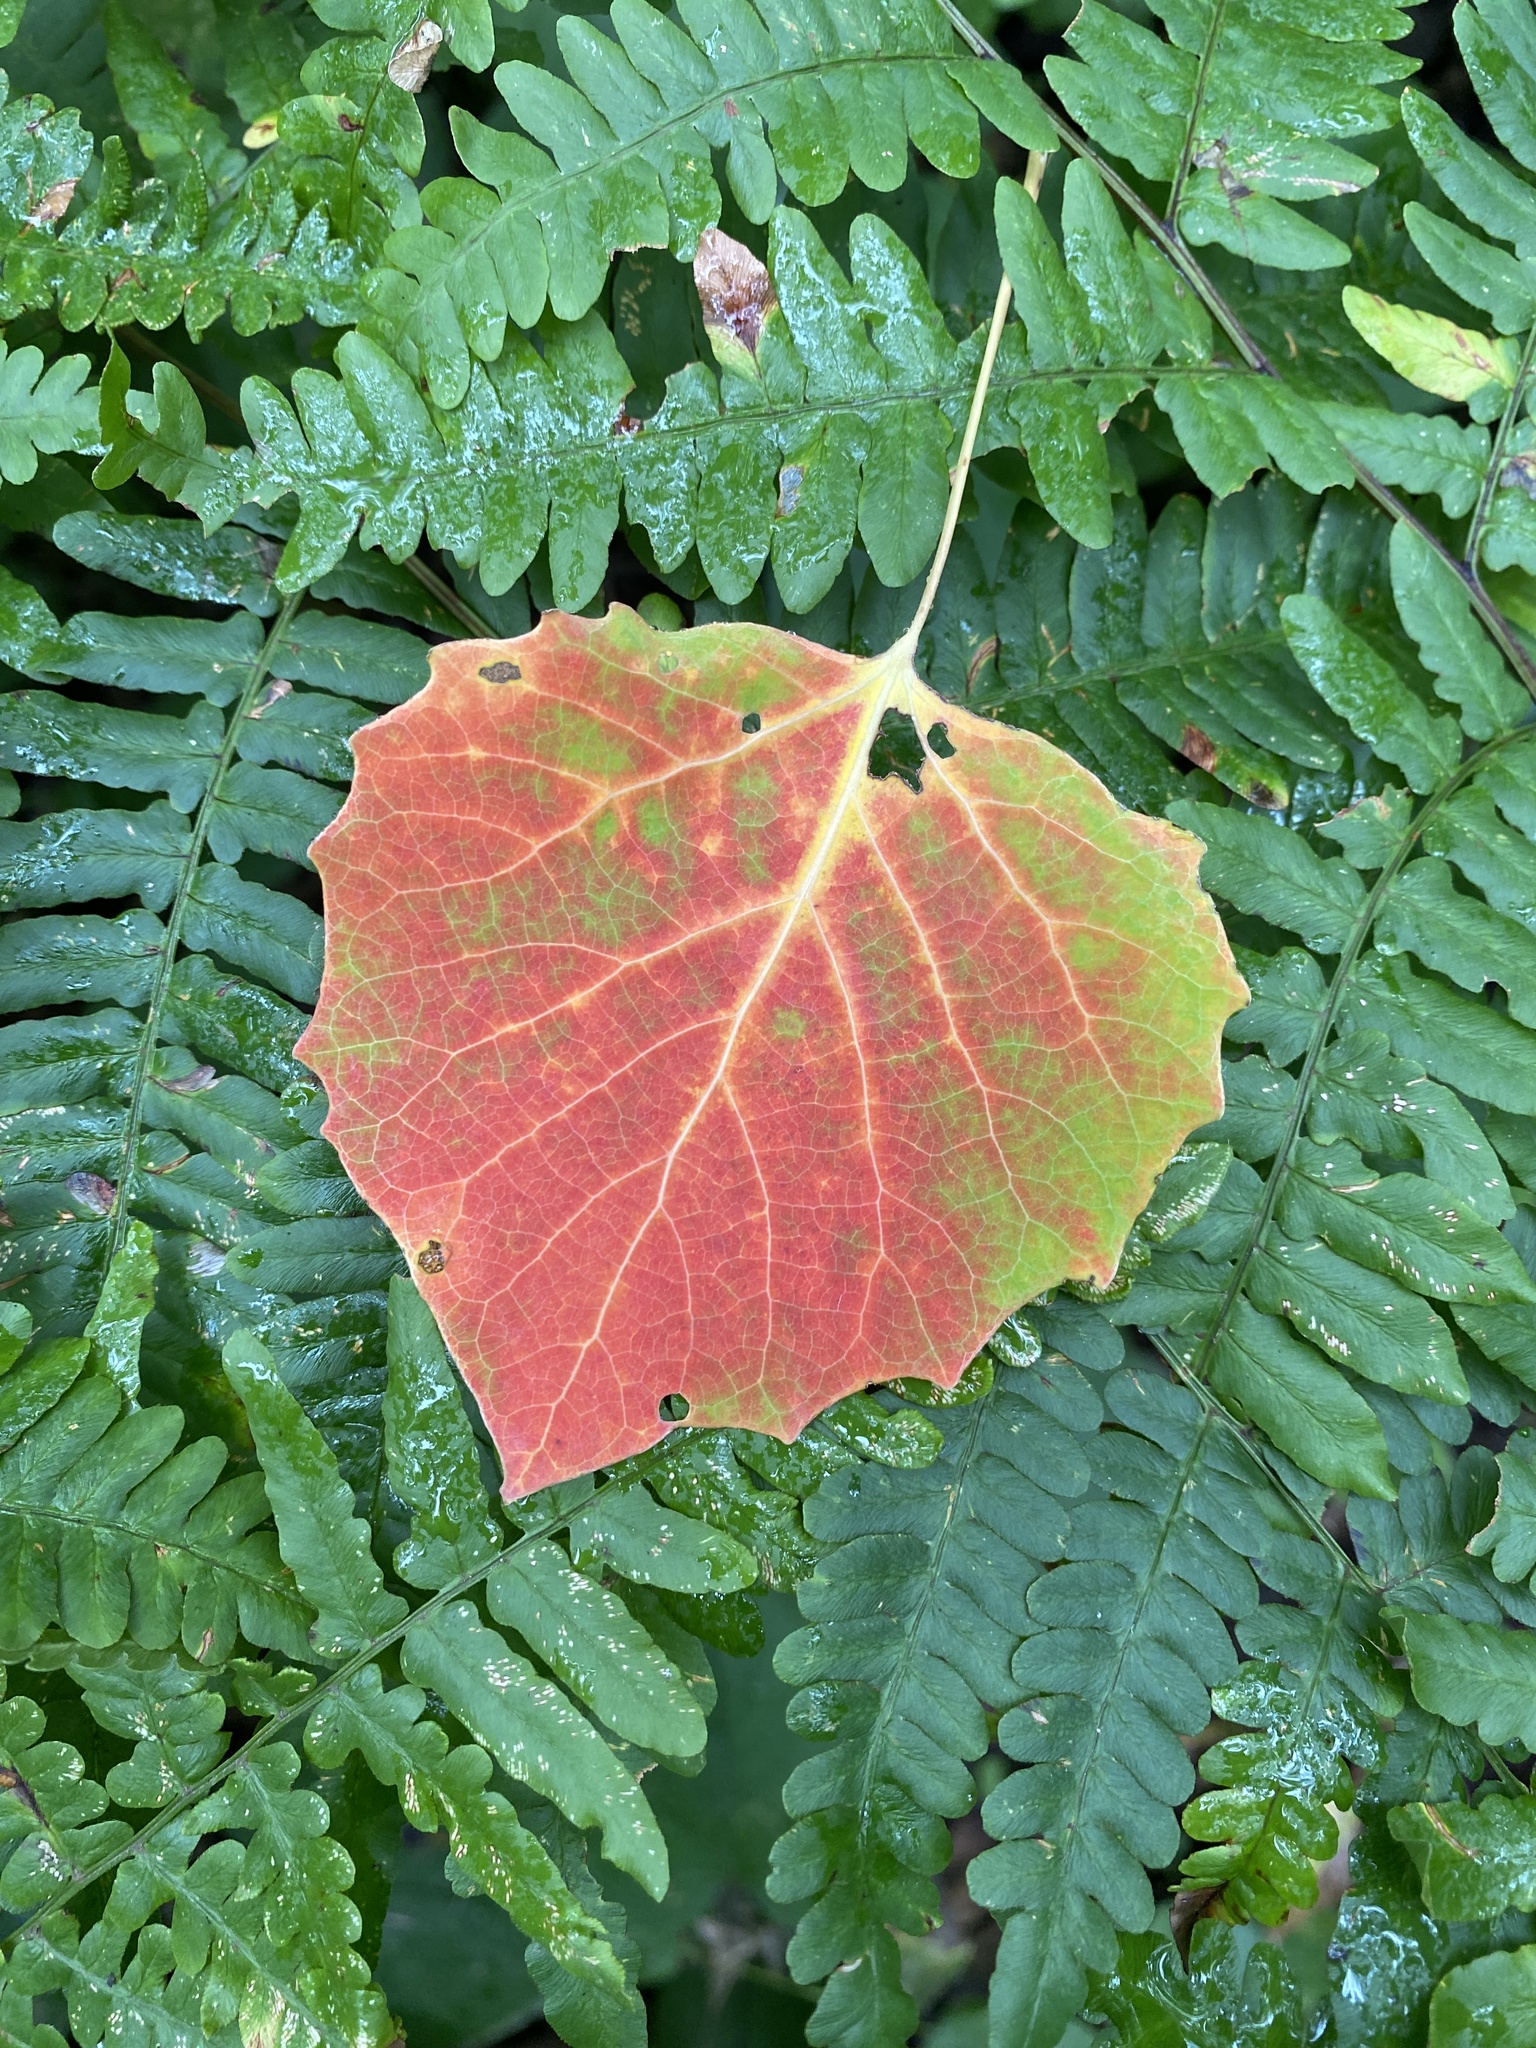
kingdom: Plantae
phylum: Tracheophyta
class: Magnoliopsida
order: Malpighiales
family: Salicaceae
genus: Populus
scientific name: Populus grandidentata
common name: Bigtooth aspen
